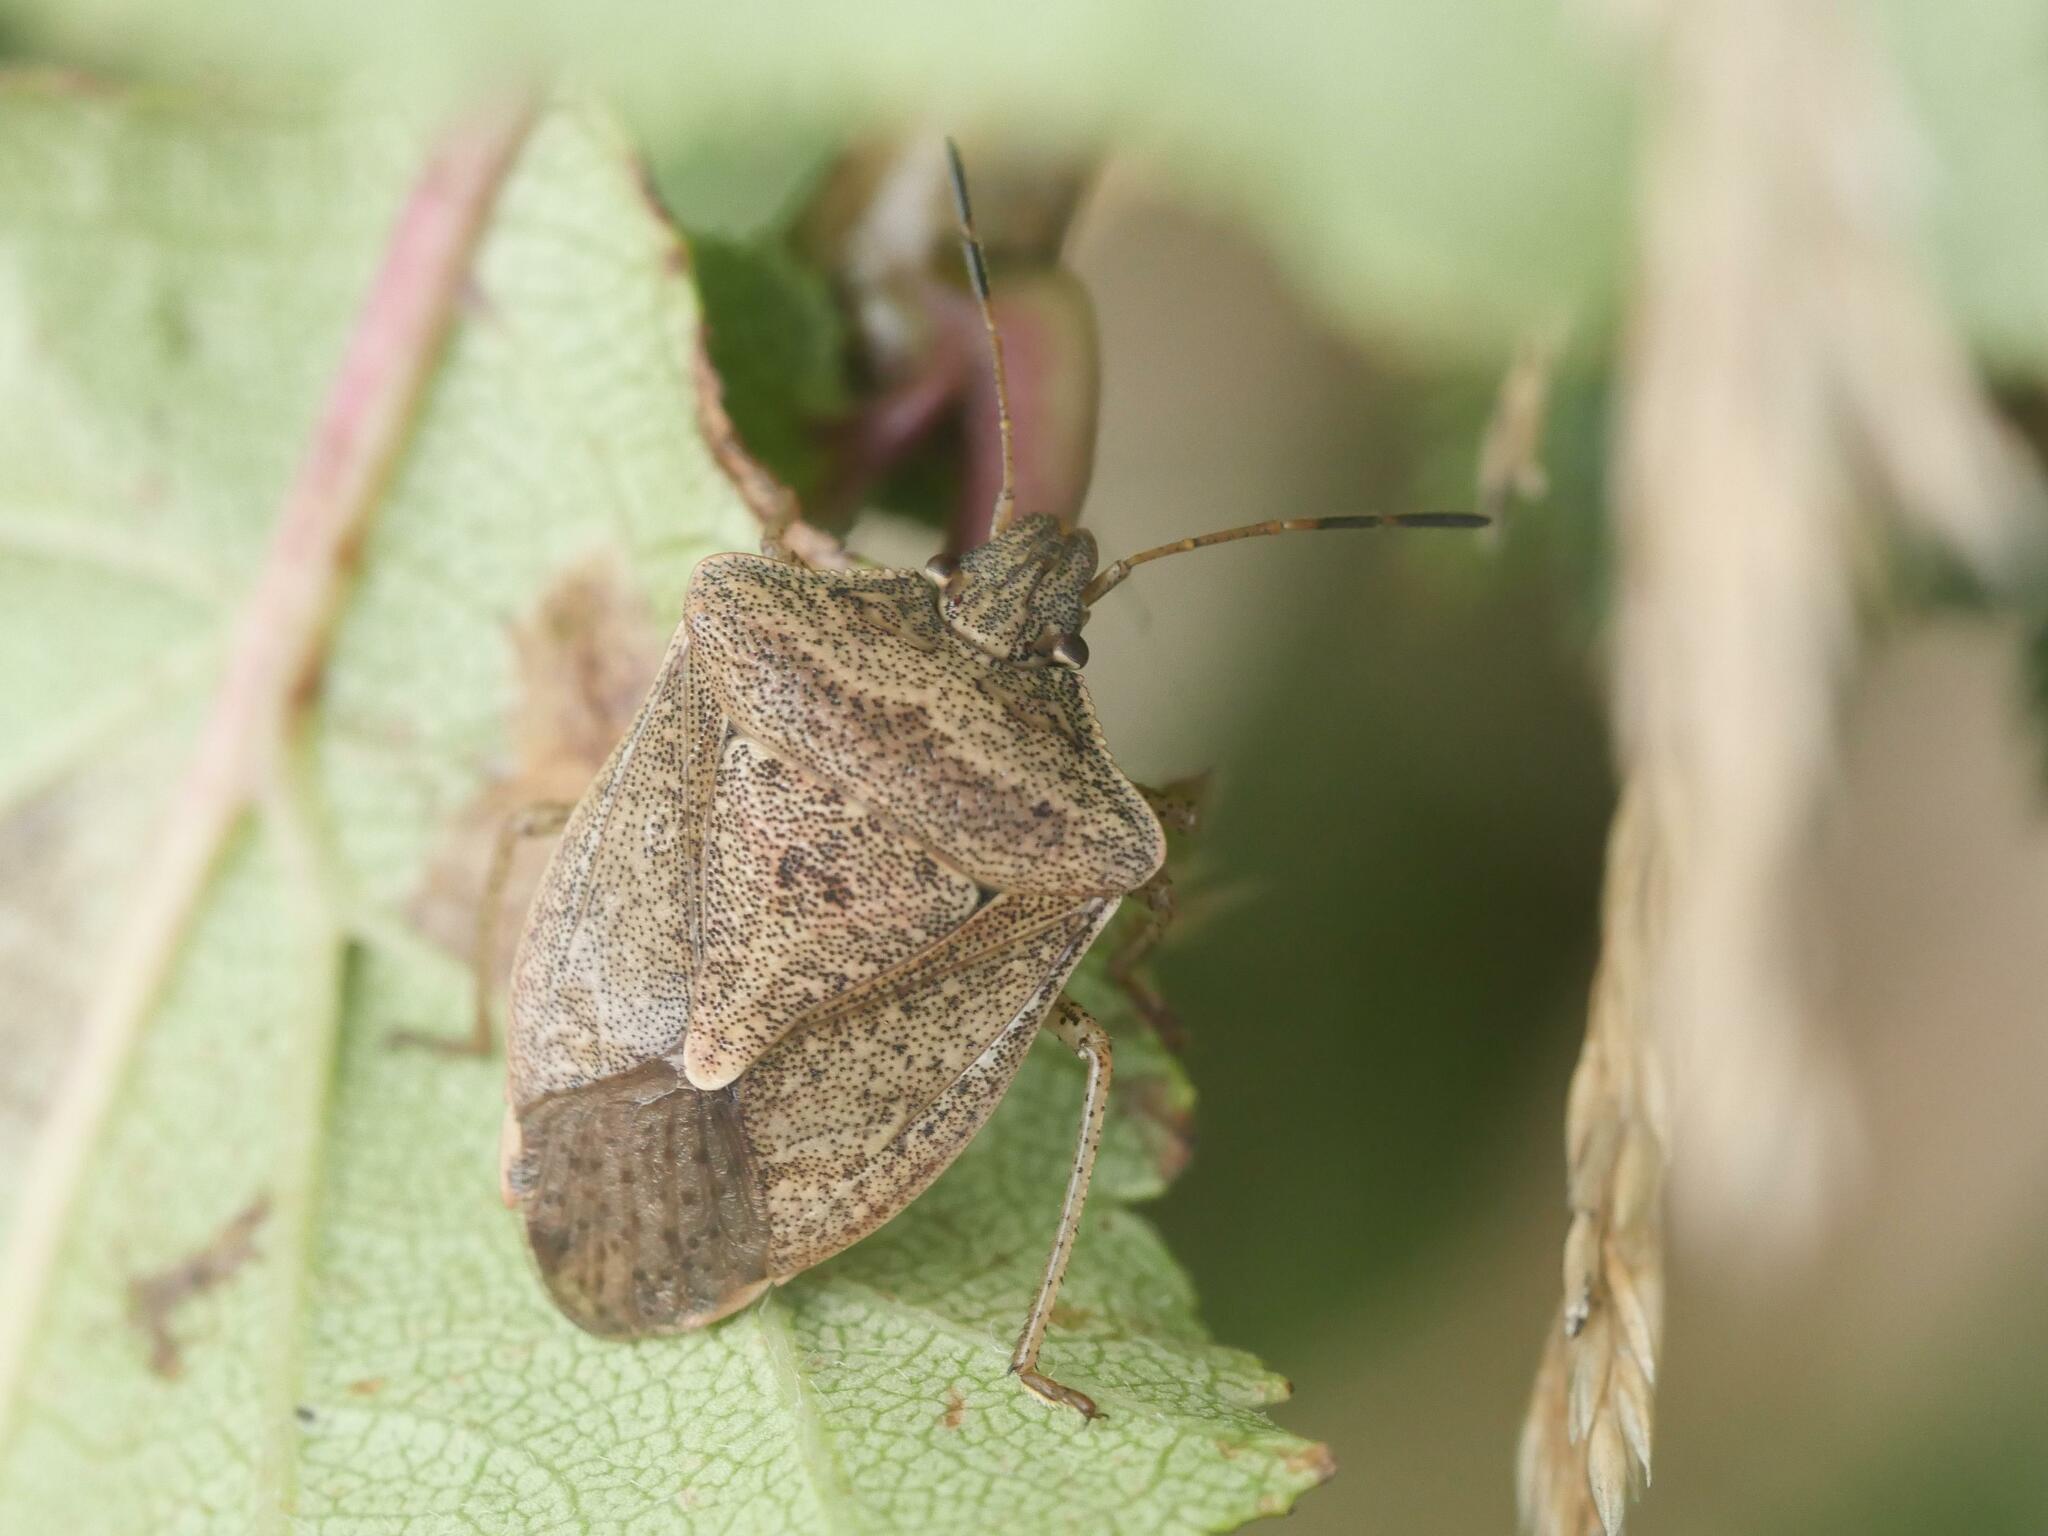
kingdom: Animalia
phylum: Arthropoda
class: Insecta
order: Hemiptera
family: Pentatomidae
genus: Euschistus
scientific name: Euschistus servus
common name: Brown stink bug
